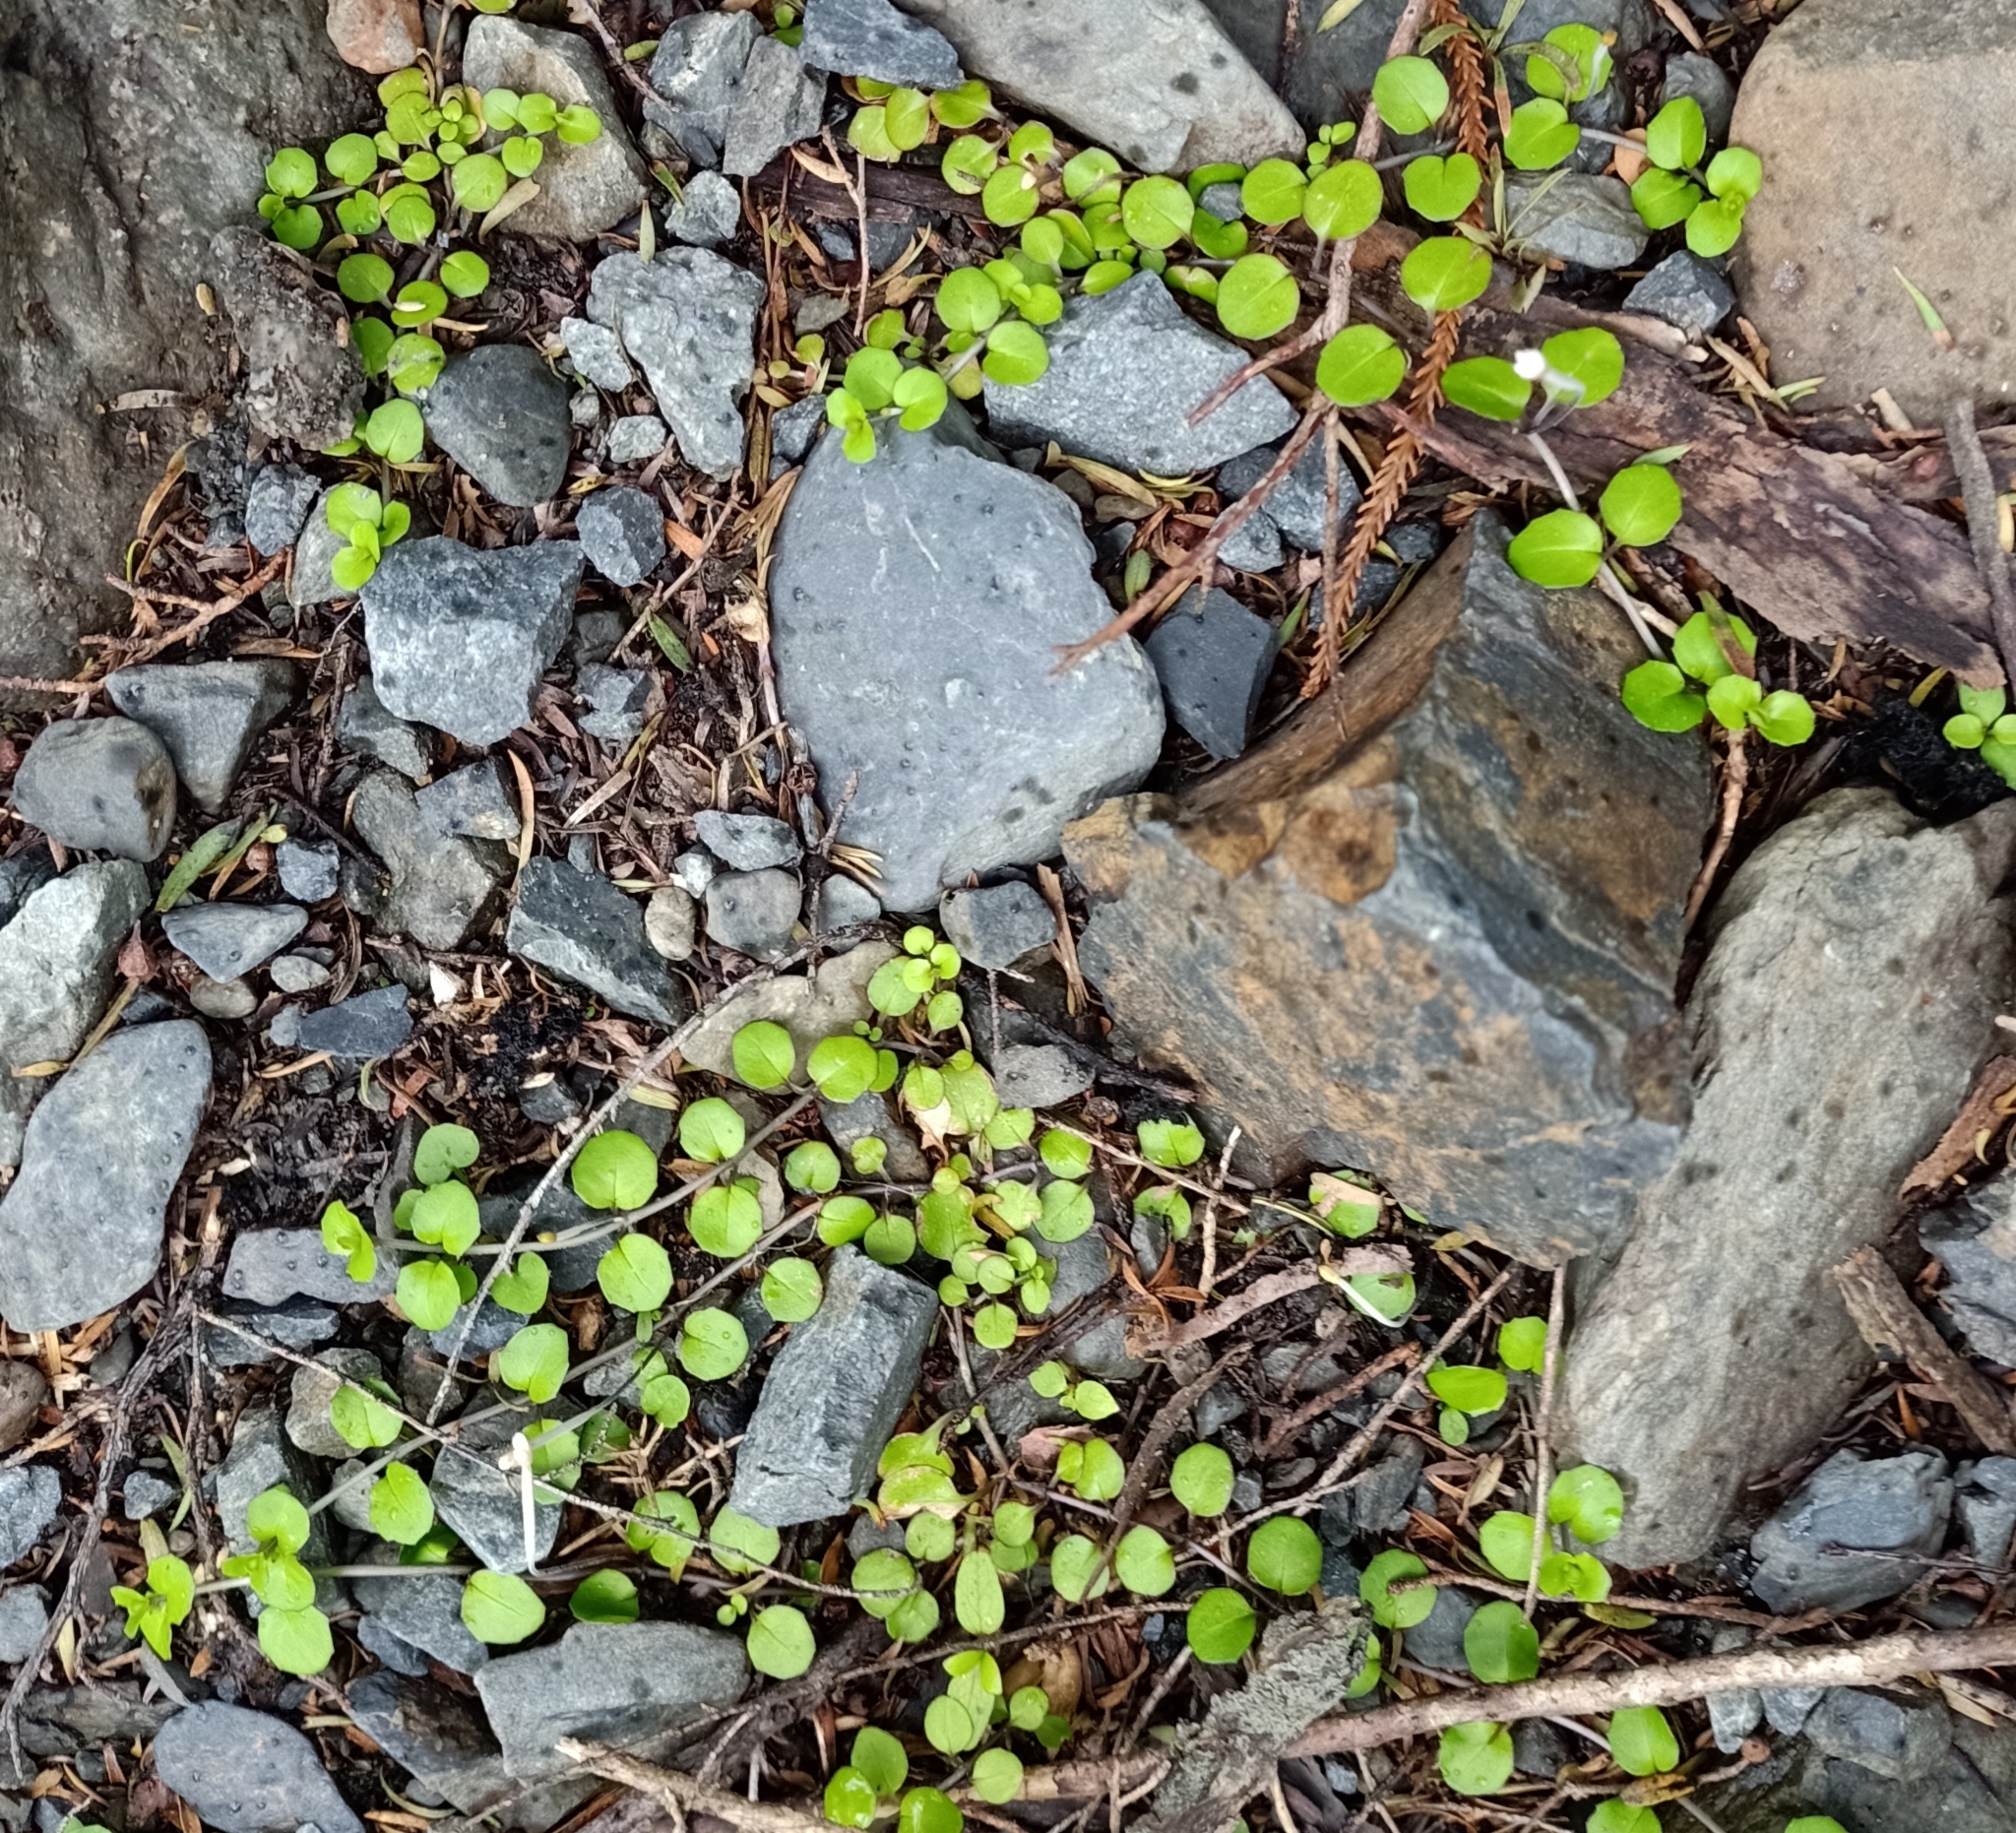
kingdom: Plantae
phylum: Tracheophyta
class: Magnoliopsida
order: Myrtales
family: Onagraceae
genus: Epilobium
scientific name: Epilobium nummularifolium
